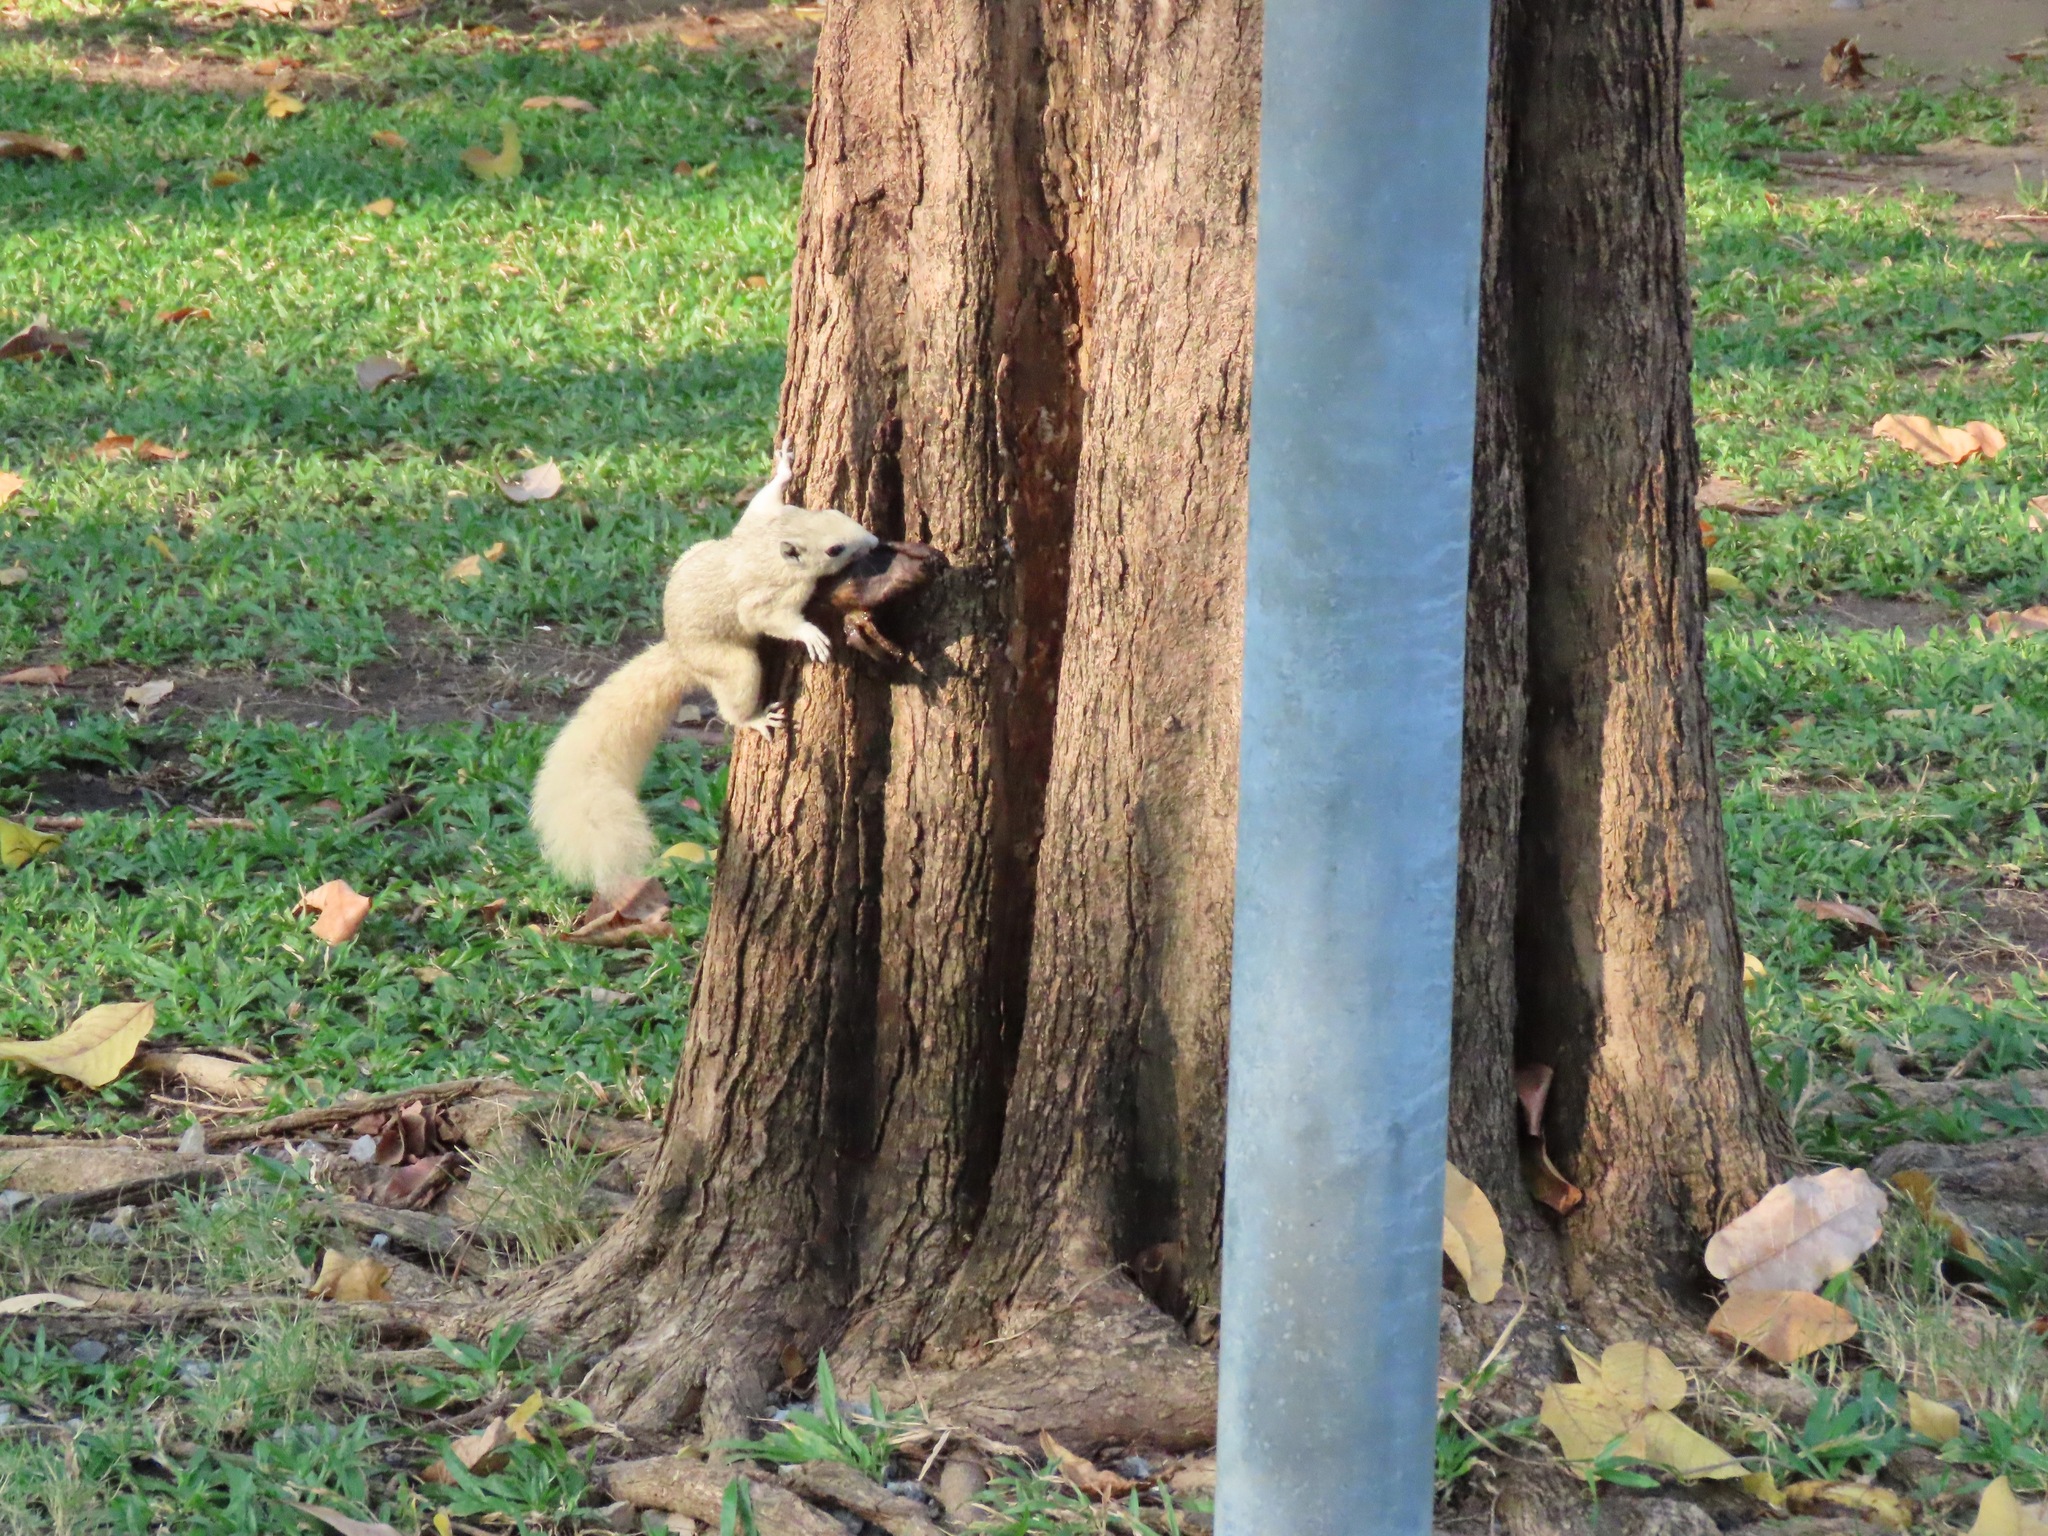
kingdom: Animalia
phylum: Chordata
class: Mammalia
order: Rodentia
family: Sciuridae
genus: Callosciurus
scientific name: Callosciurus finlaysonii
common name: Finlayson's squirrel
